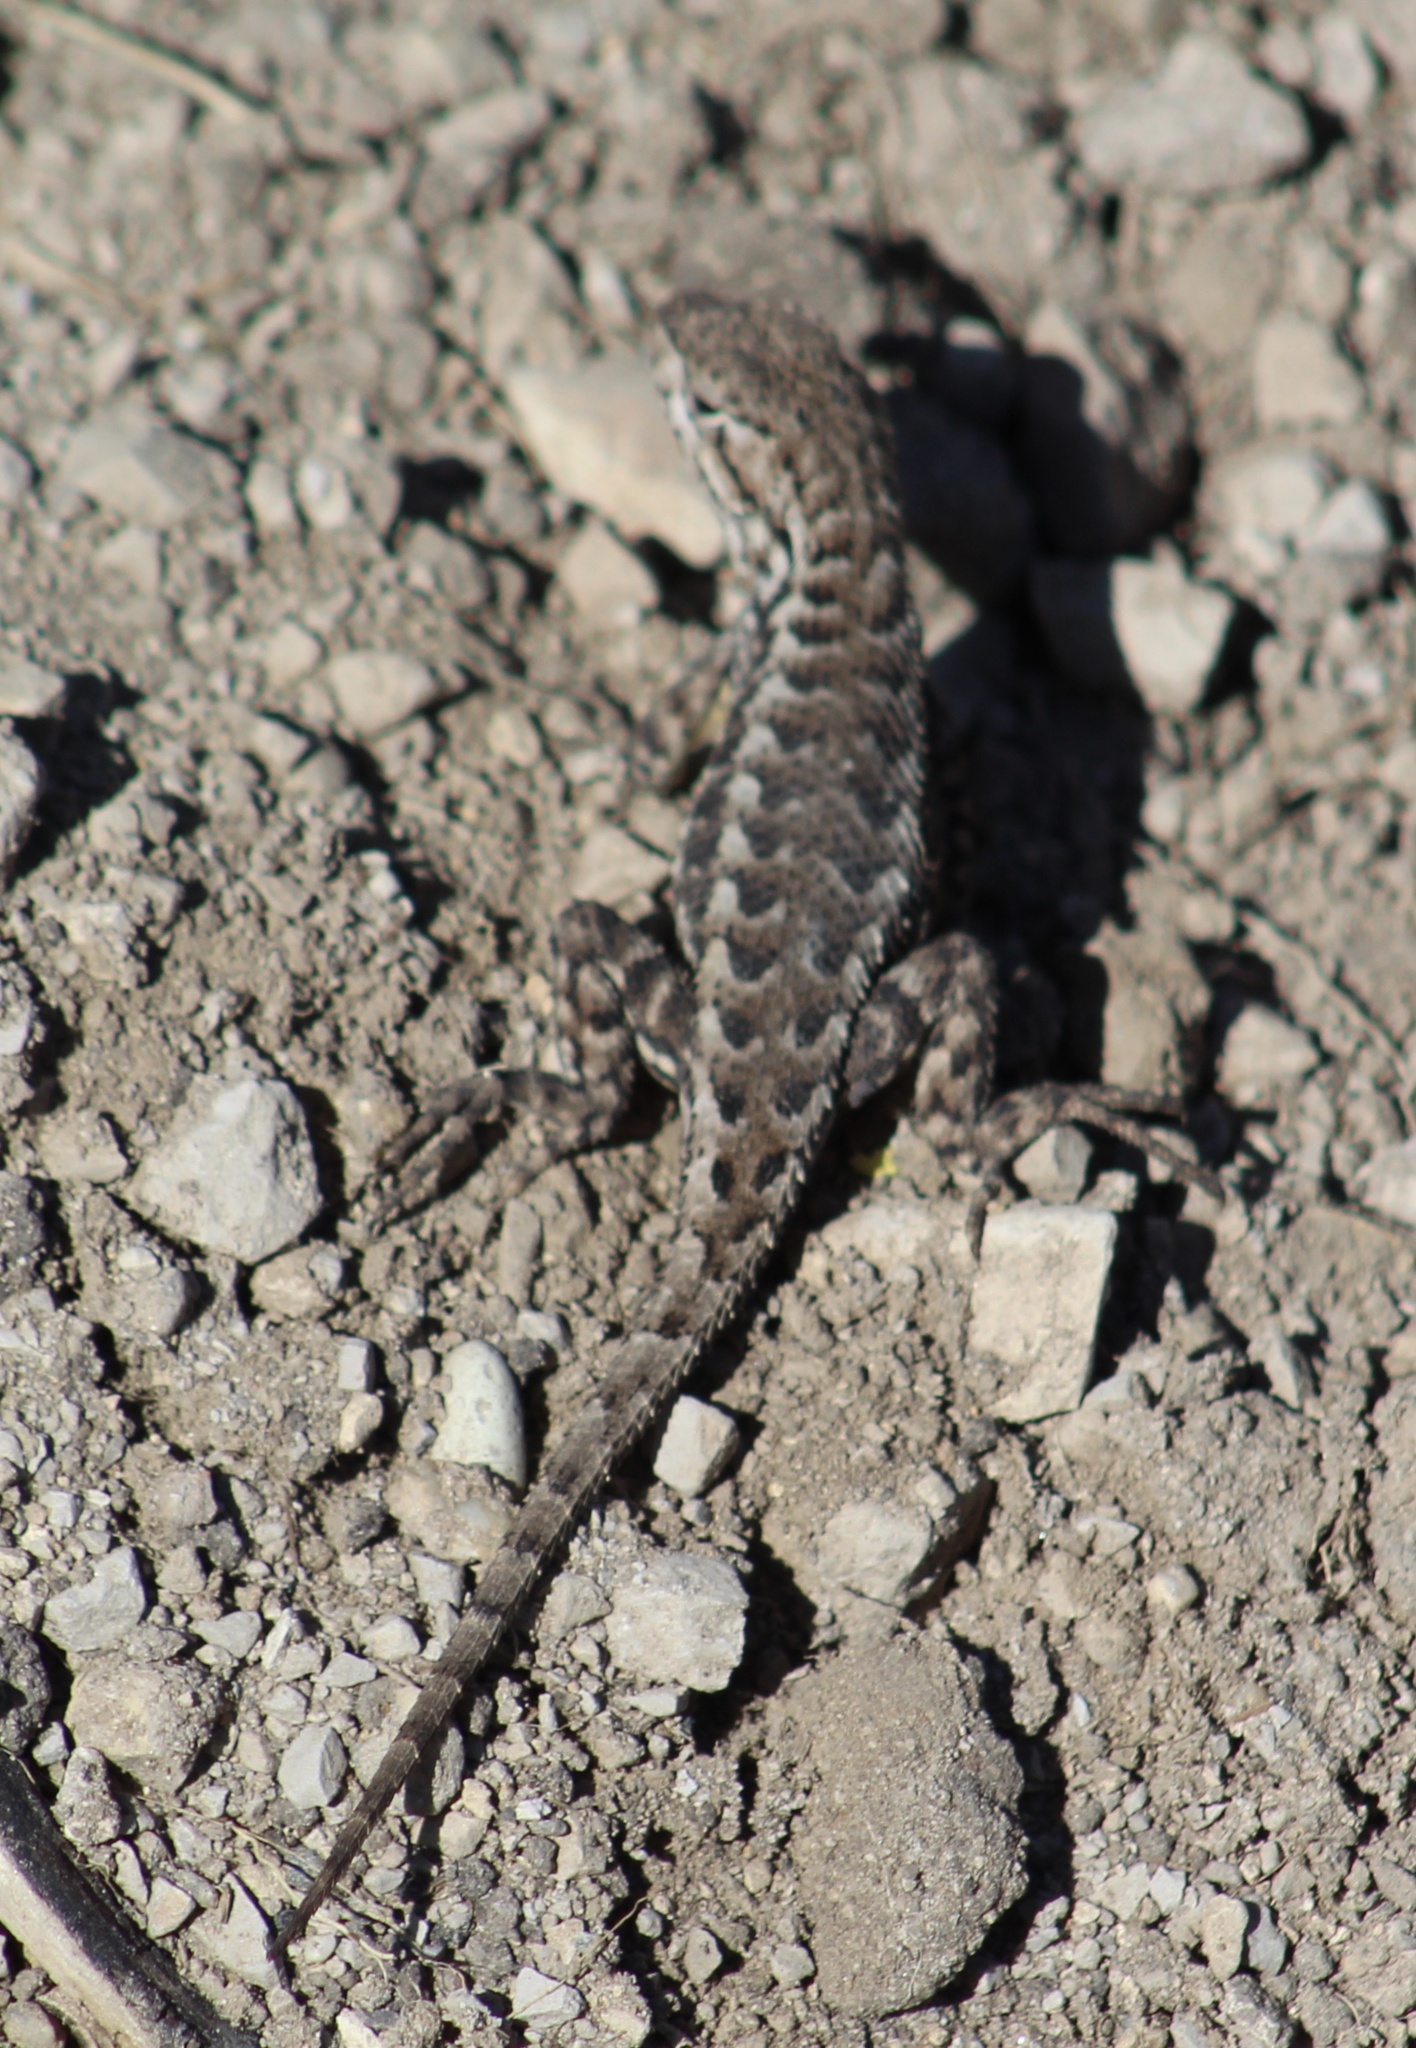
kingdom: Animalia
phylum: Chordata
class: Squamata
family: Phrynosomatidae
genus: Sceloporus
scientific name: Sceloporus occidentalis
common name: Western fence lizard
